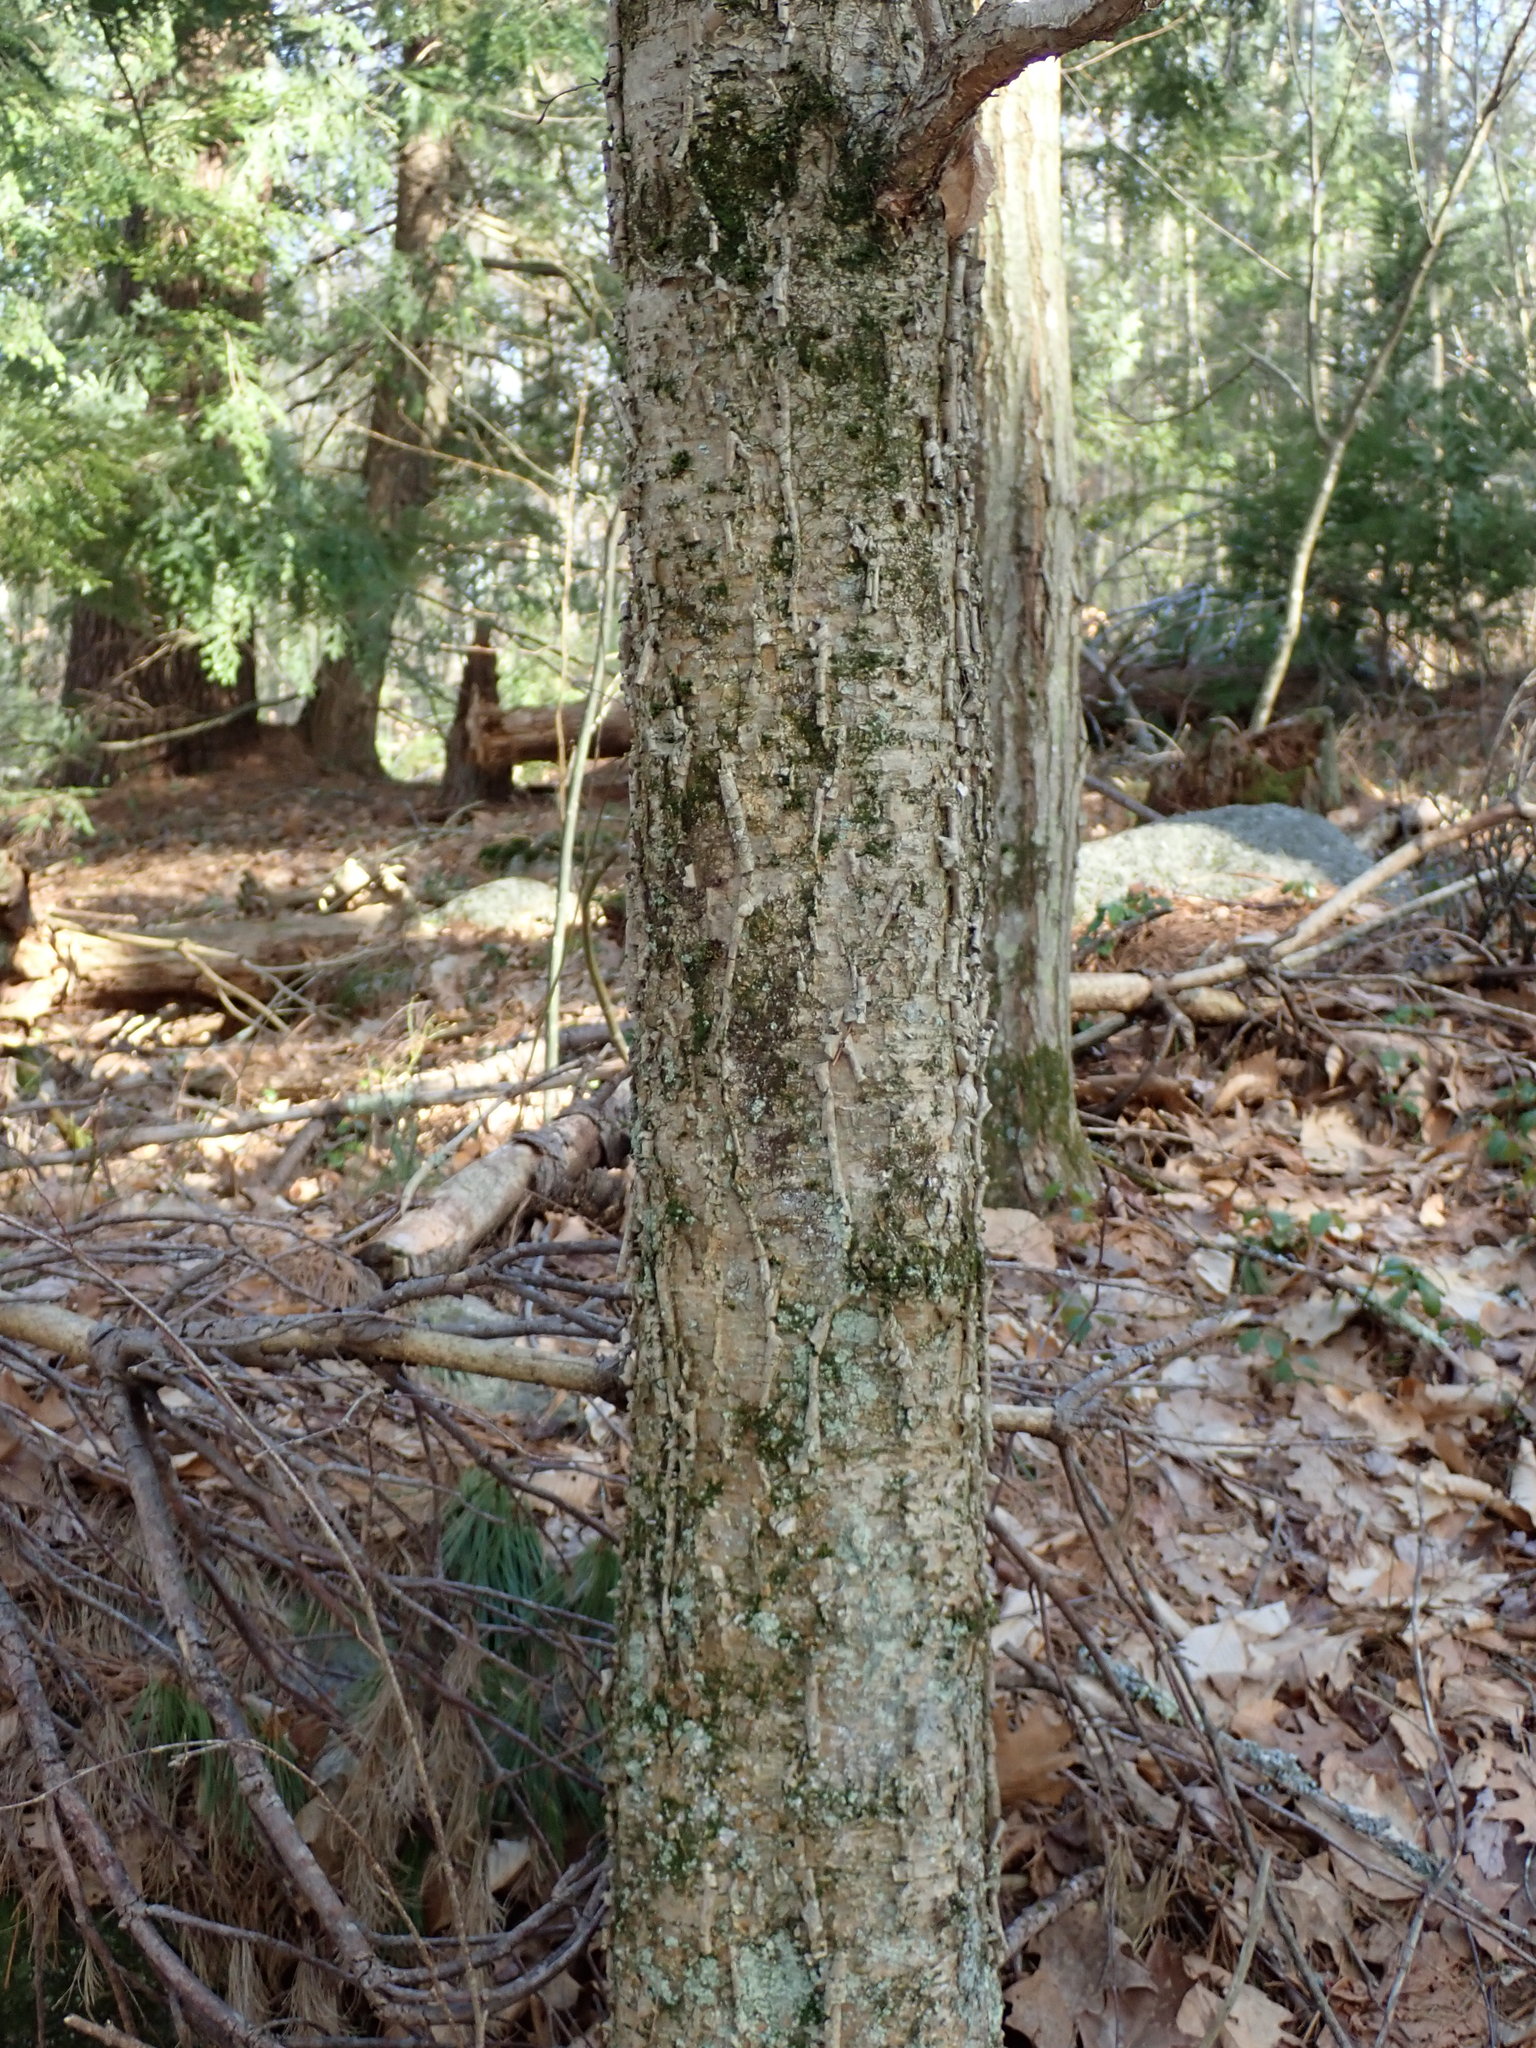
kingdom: Plantae
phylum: Tracheophyta
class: Magnoliopsida
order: Fagales
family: Betulaceae
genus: Betula
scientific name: Betula alleghaniensis
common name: Yellow birch
